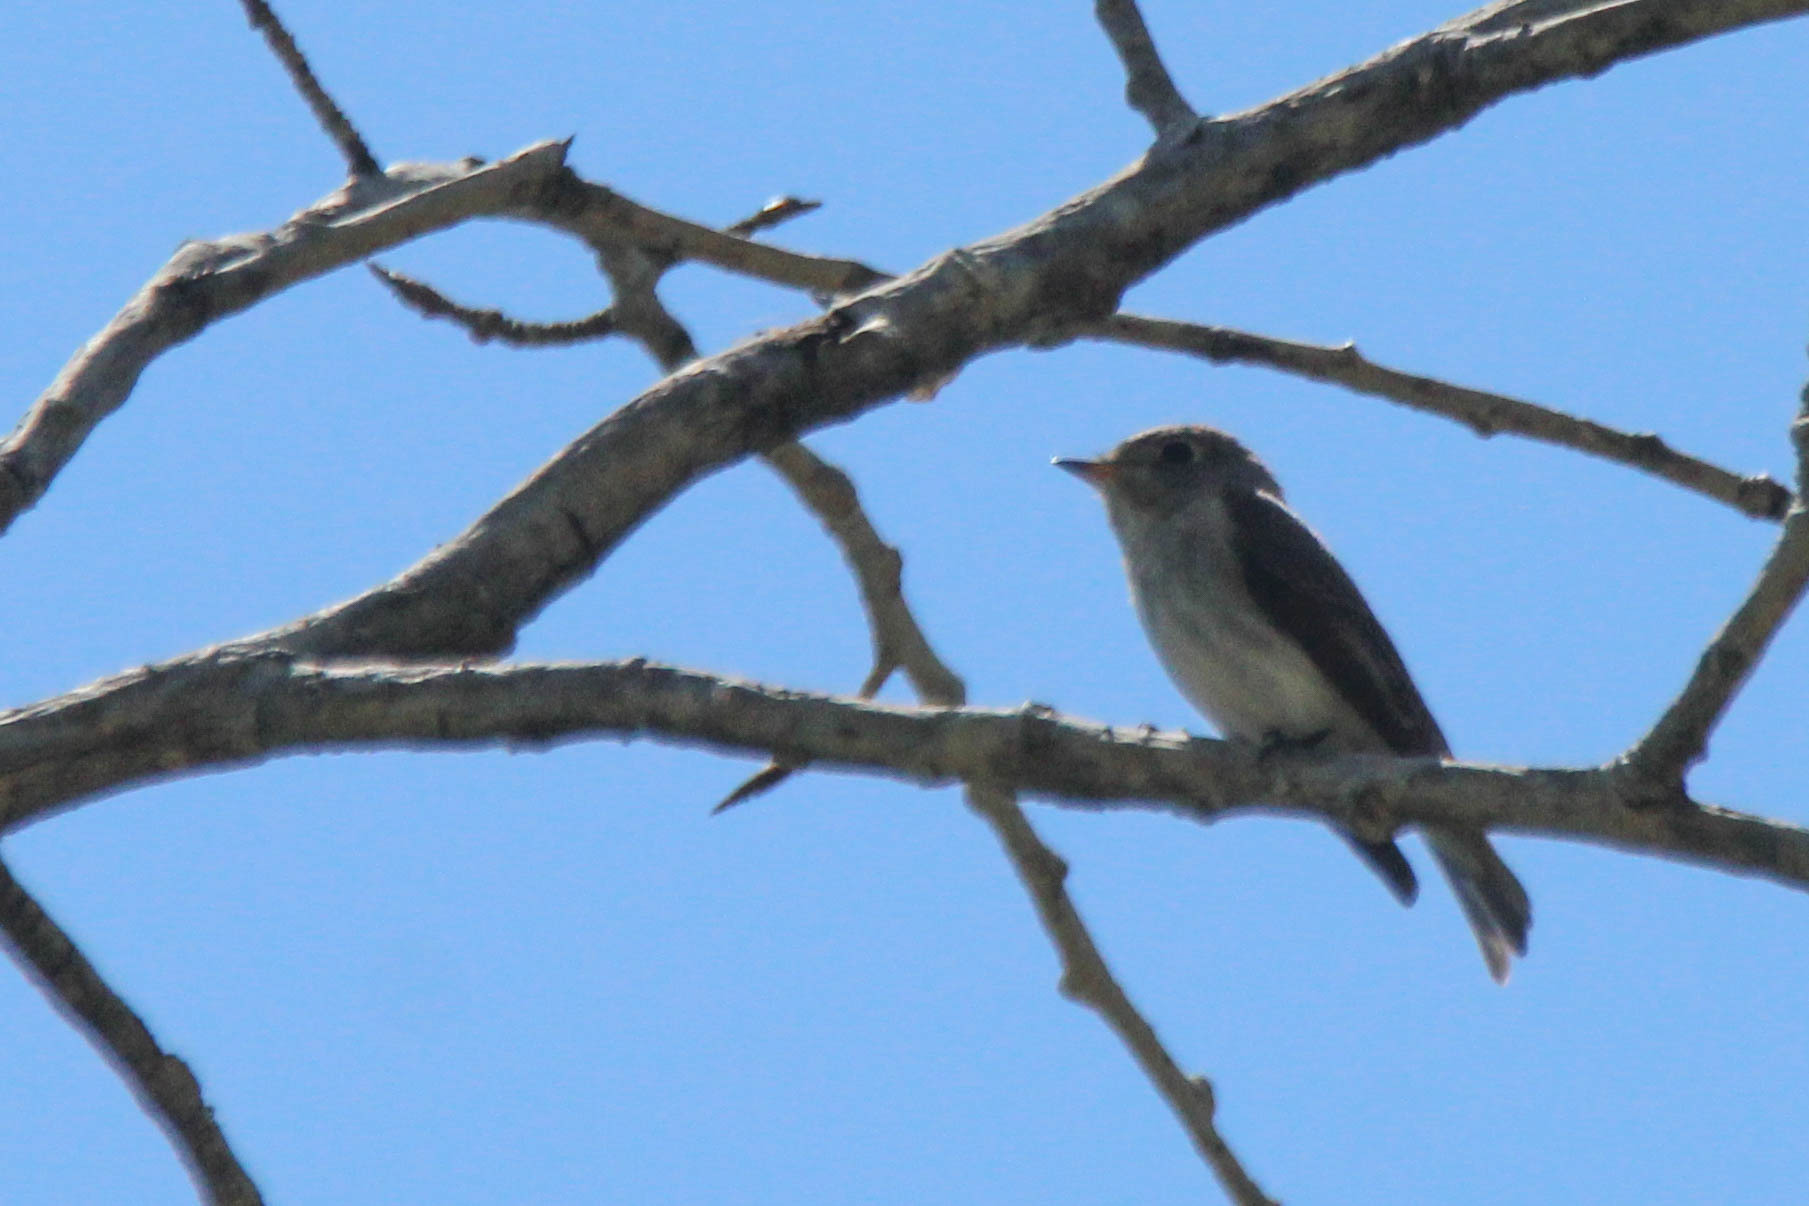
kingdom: Animalia
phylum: Chordata
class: Aves
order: Passeriformes
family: Muscicapidae
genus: Muscicapa
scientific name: Muscicapa latirostris
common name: Asian brown flycatcher
